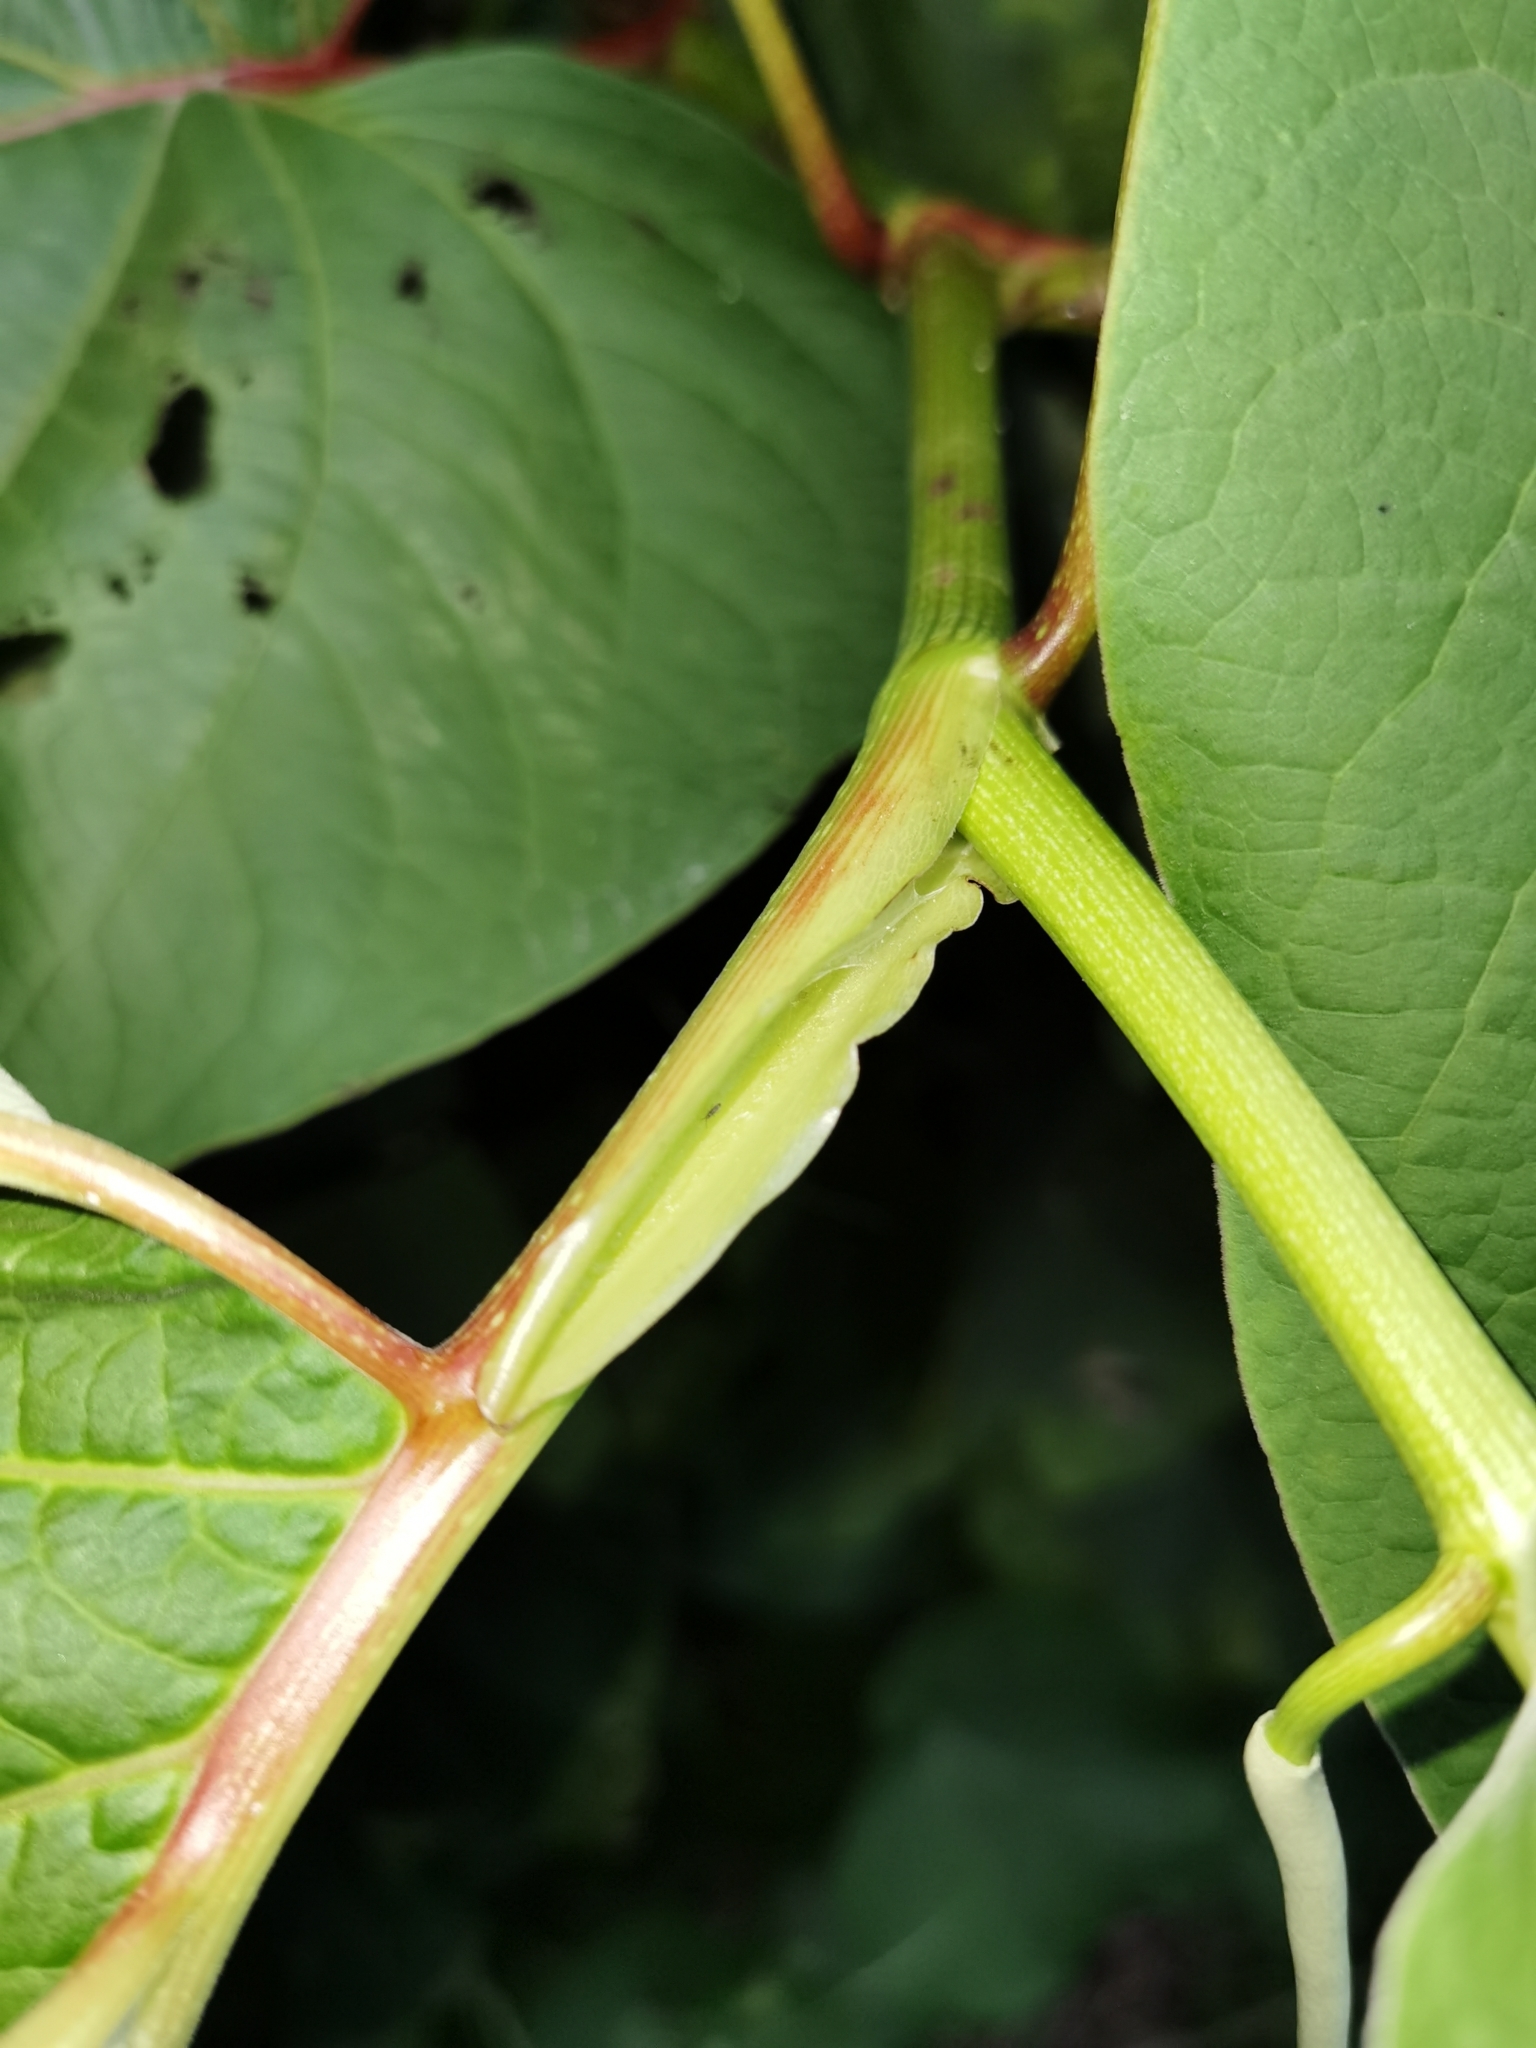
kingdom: Plantae
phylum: Tracheophyta
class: Magnoliopsida
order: Piperales
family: Piperaceae
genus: Piper
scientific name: Piper auritum
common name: Vera cruz pepper
